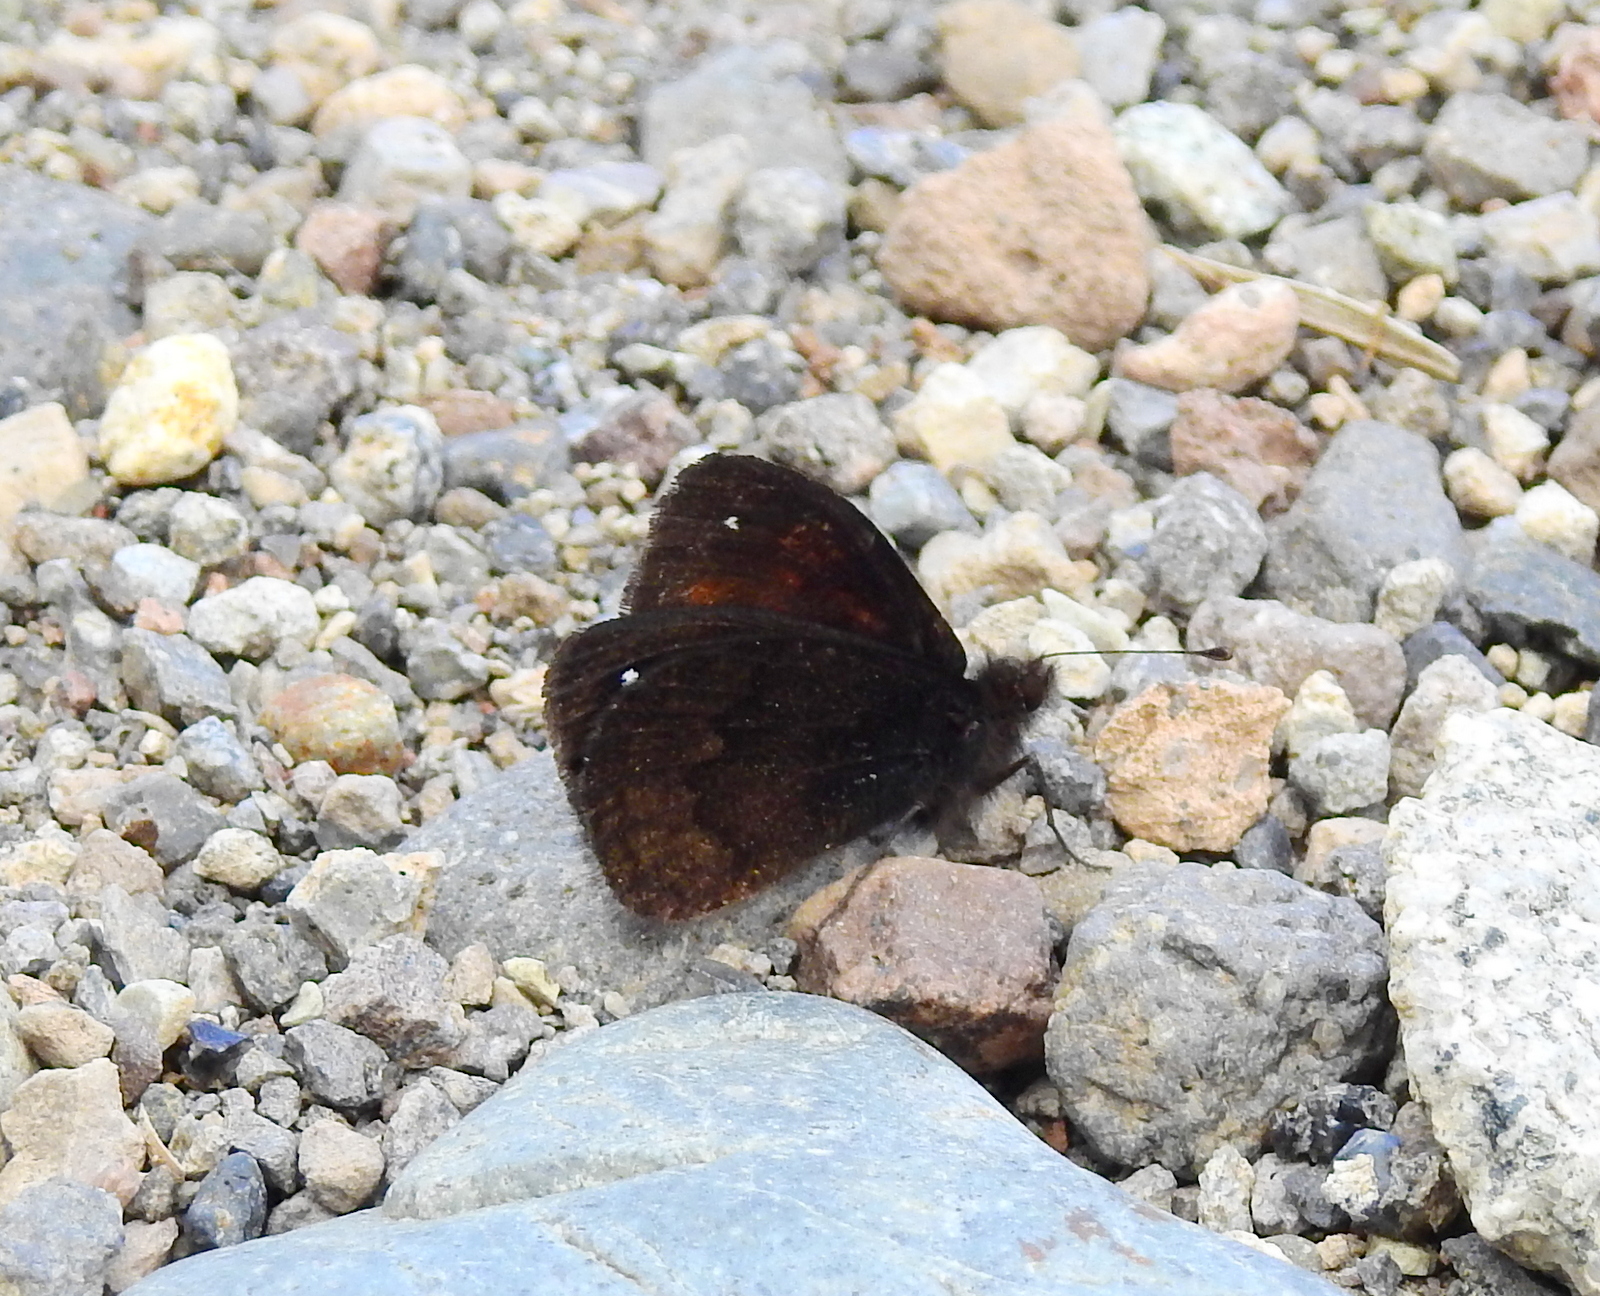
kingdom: Animalia
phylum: Arthropoda
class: Insecta
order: Lepidoptera
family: Nymphalidae
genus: Faunula
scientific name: Faunula leucoglene
